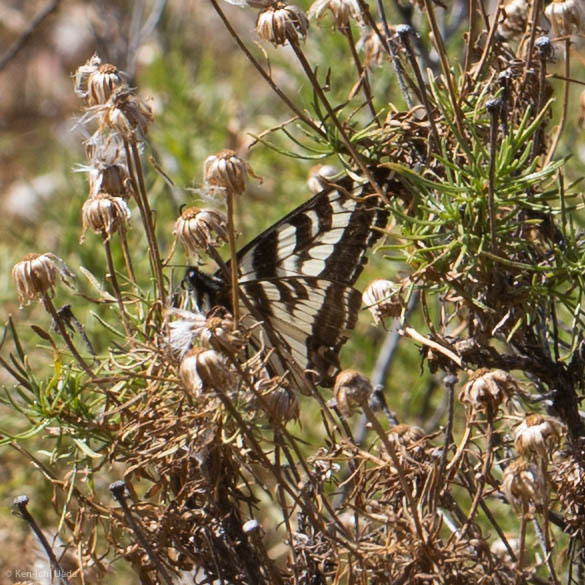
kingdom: Animalia
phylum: Arthropoda
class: Insecta
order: Lepidoptera
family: Papilionidae
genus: Papilio
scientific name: Papilio eurymedon
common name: Pale tiger swallowtail
